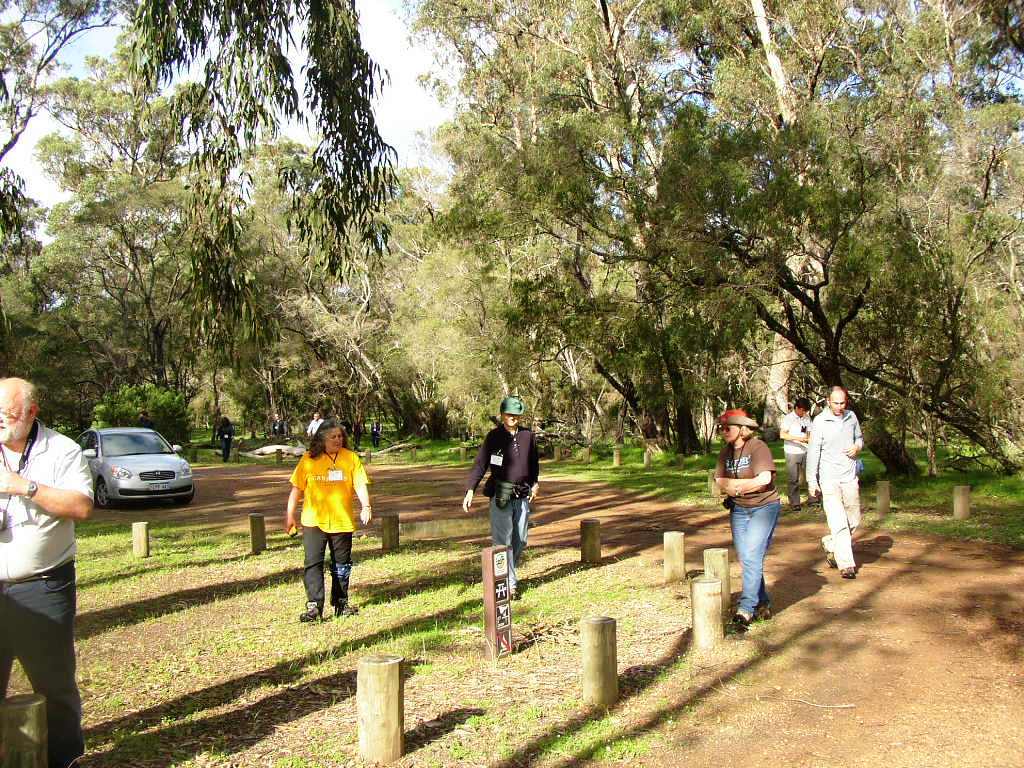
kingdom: Plantae
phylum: Tracheophyta
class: Magnoliopsida
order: Myrtales
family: Myrtaceae
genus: Eucalyptus
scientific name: Eucalyptus gomphocephala
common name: Tuart
